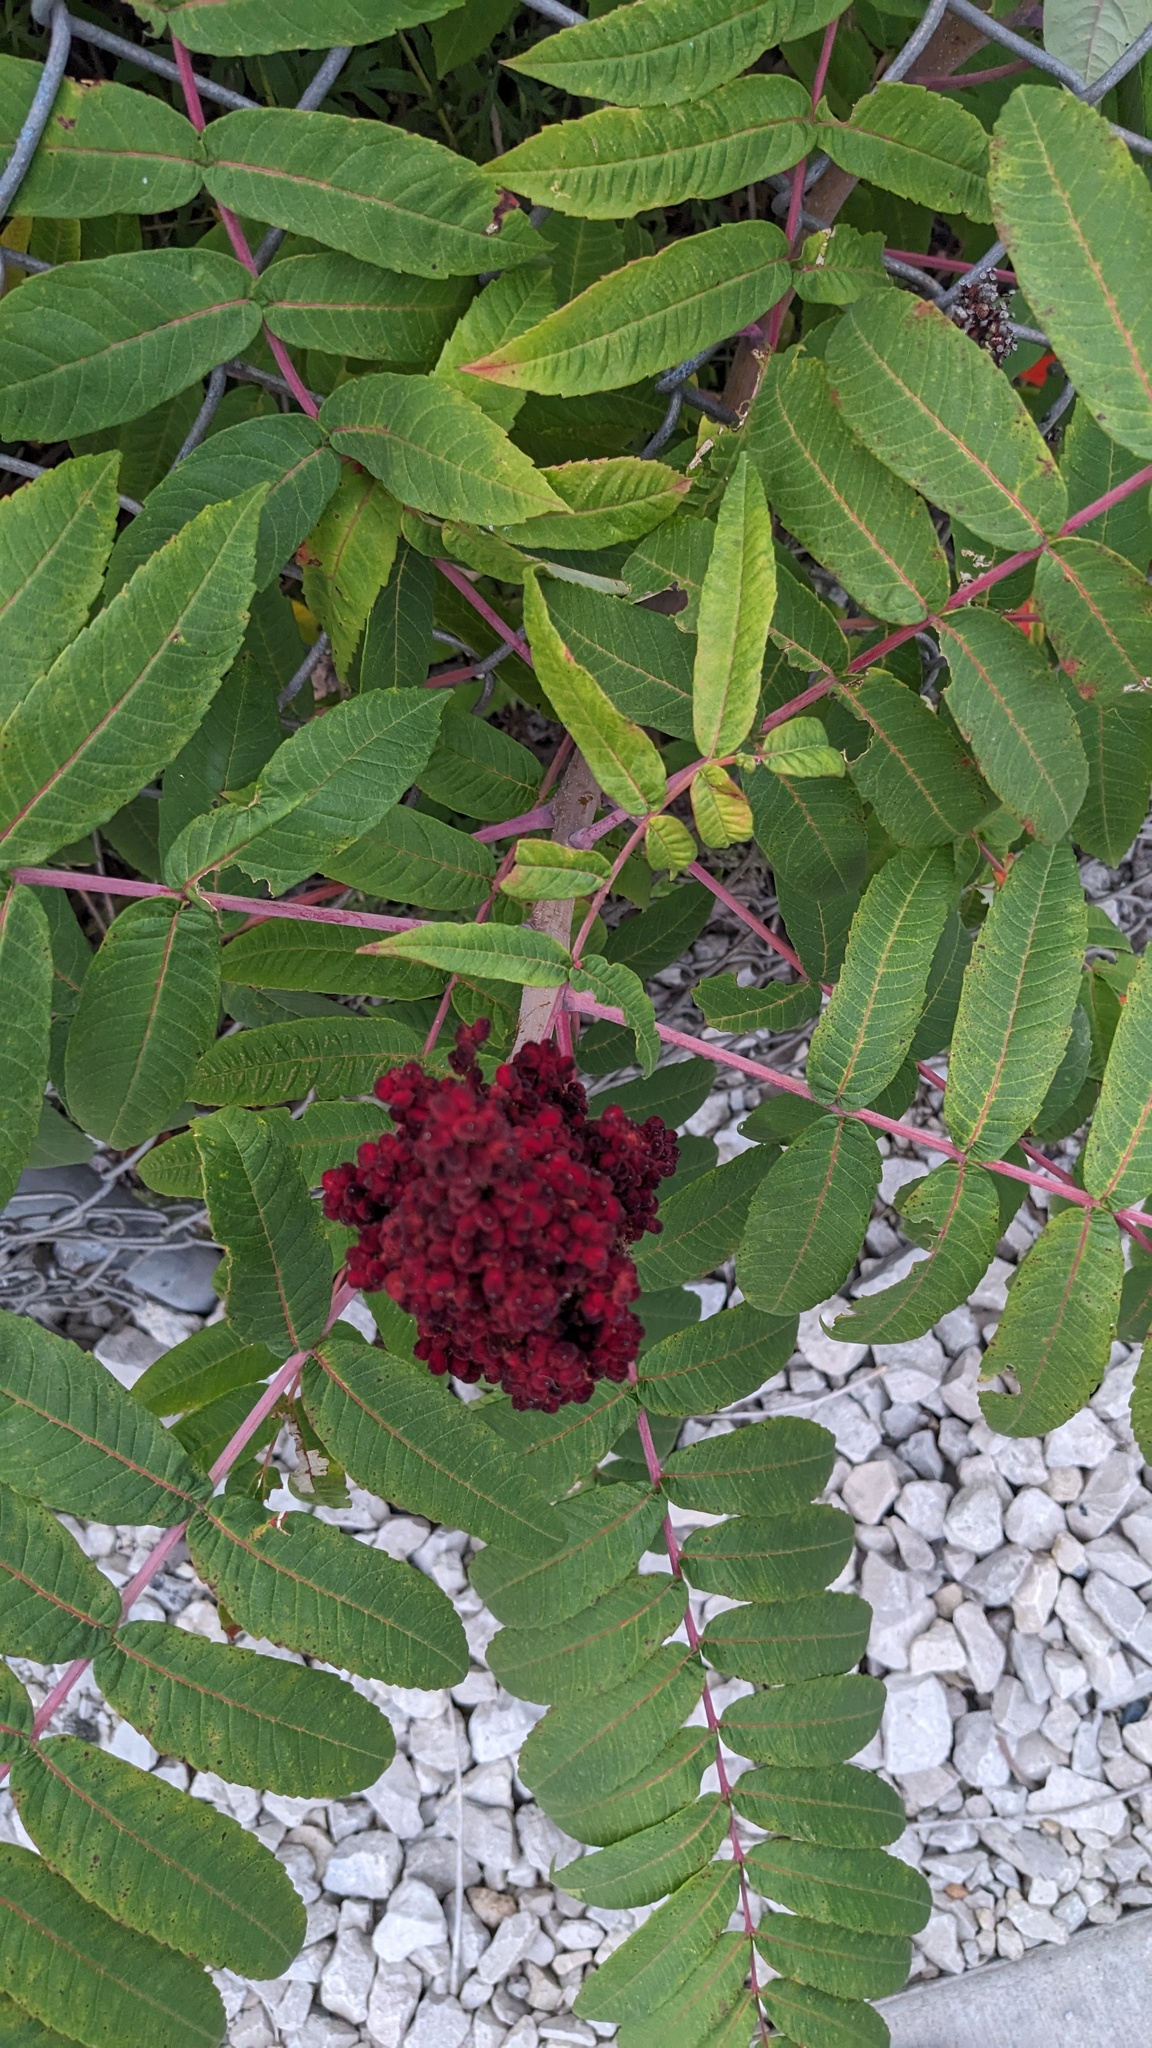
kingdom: Plantae
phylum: Tracheophyta
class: Magnoliopsida
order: Sapindales
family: Anacardiaceae
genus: Rhus
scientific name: Rhus glabra
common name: Scarlet sumac
